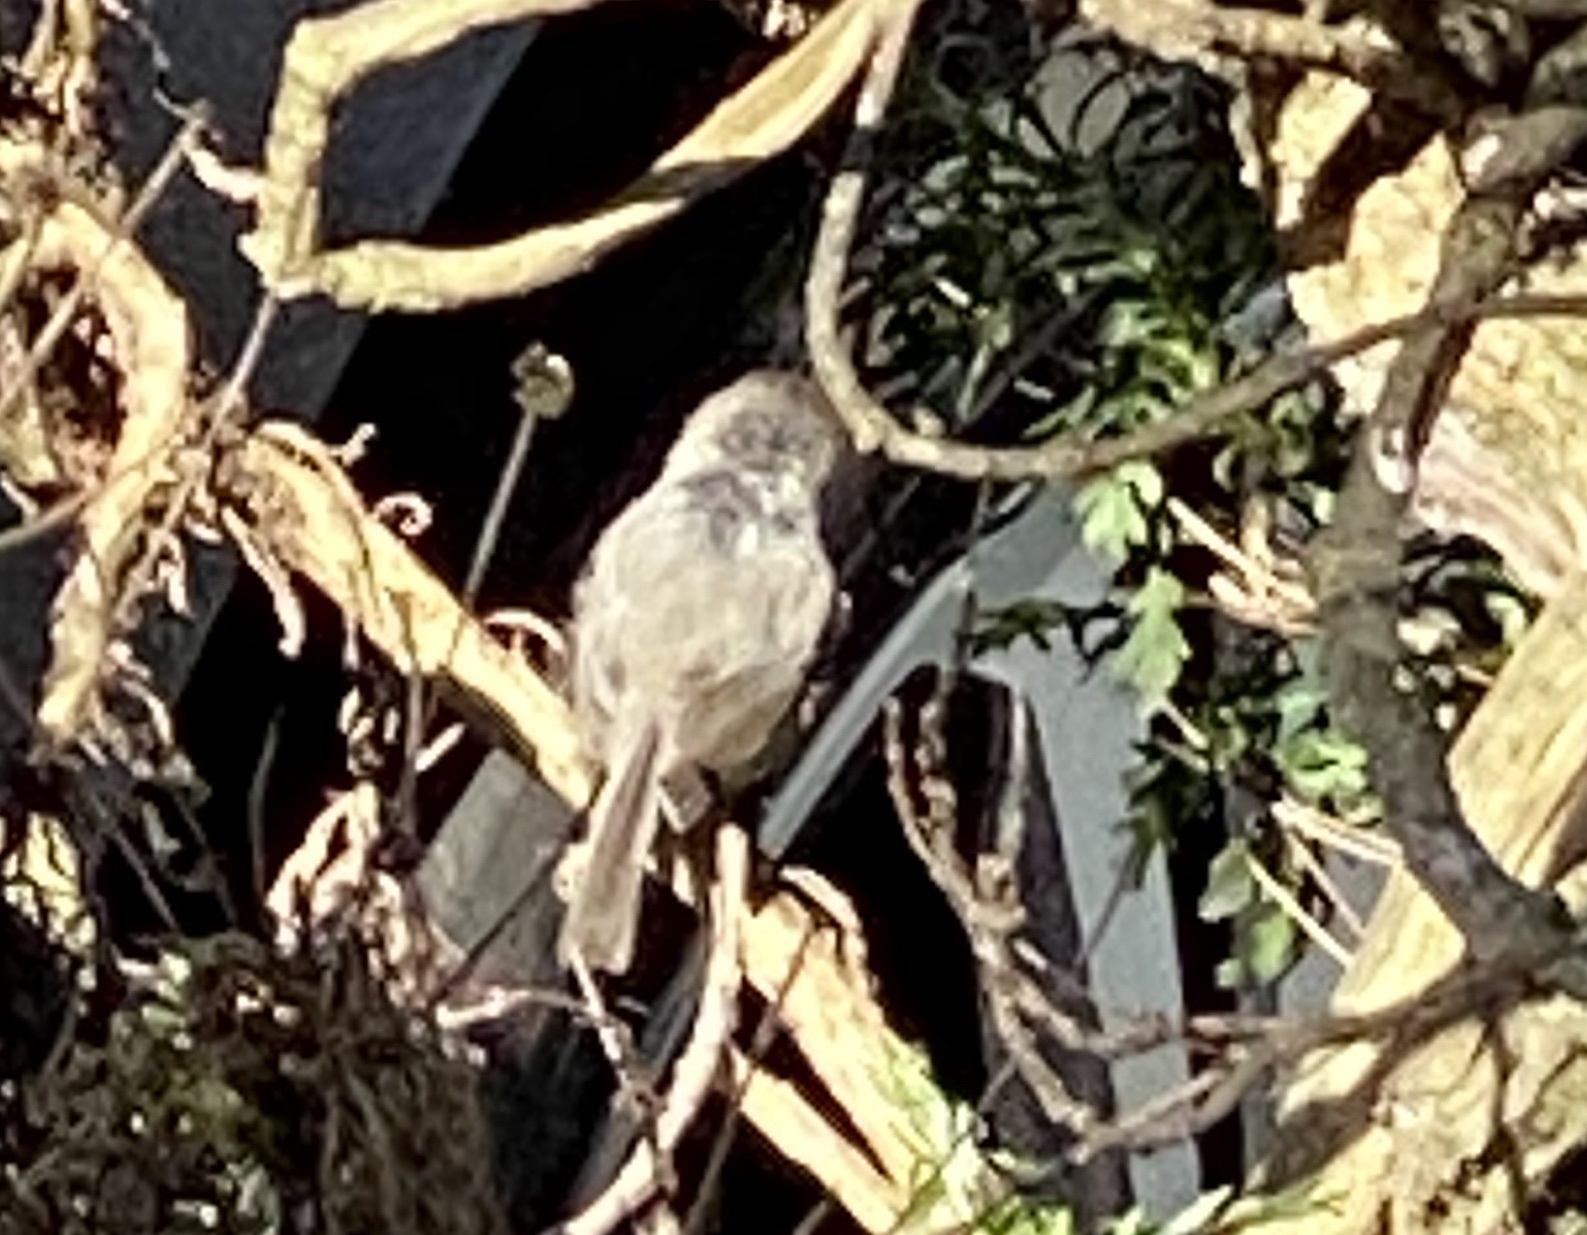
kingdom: Animalia
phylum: Chordata
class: Aves
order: Passeriformes
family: Aegithalidae
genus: Psaltriparus
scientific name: Psaltriparus minimus
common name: American bushtit
